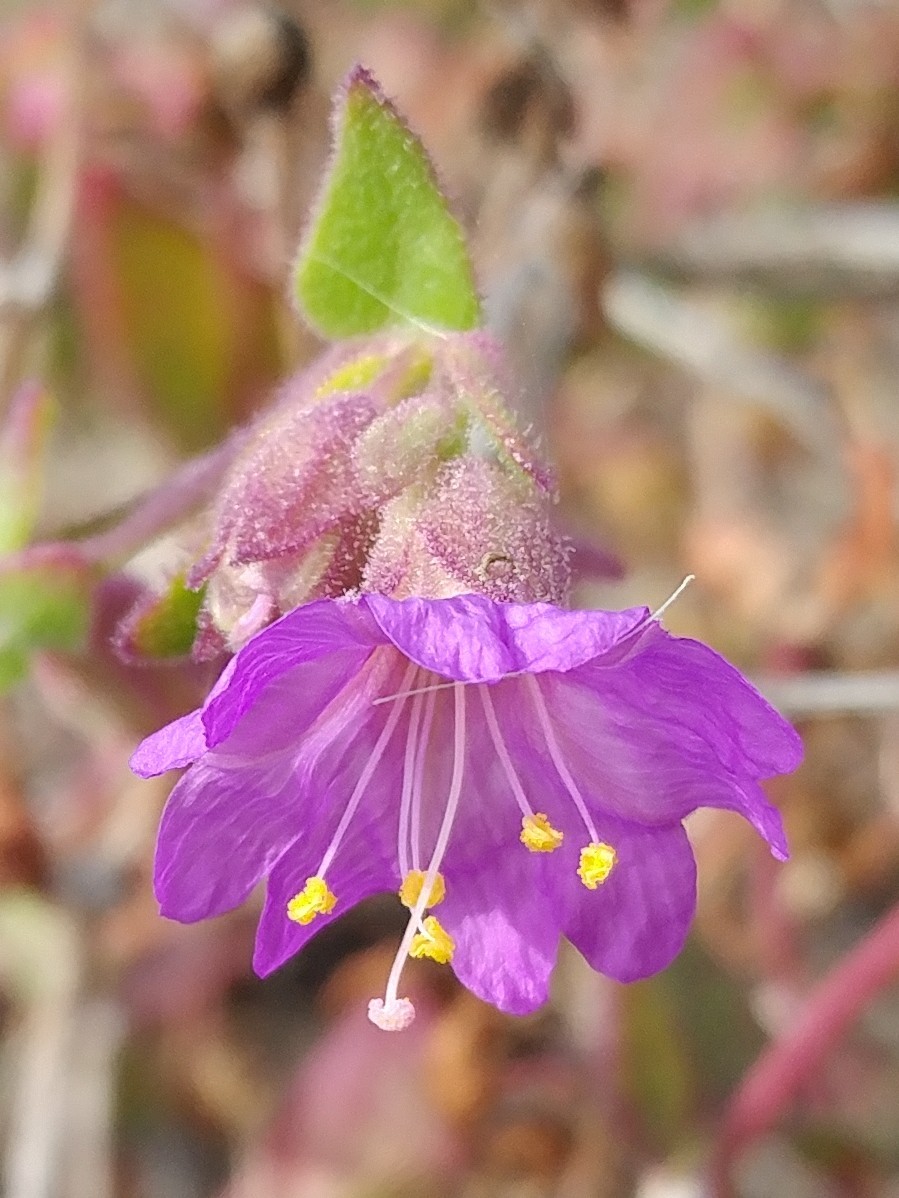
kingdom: Plantae
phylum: Tracheophyta
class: Magnoliopsida
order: Caryophyllales
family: Nyctaginaceae
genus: Mirabilis
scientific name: Mirabilis laevis
